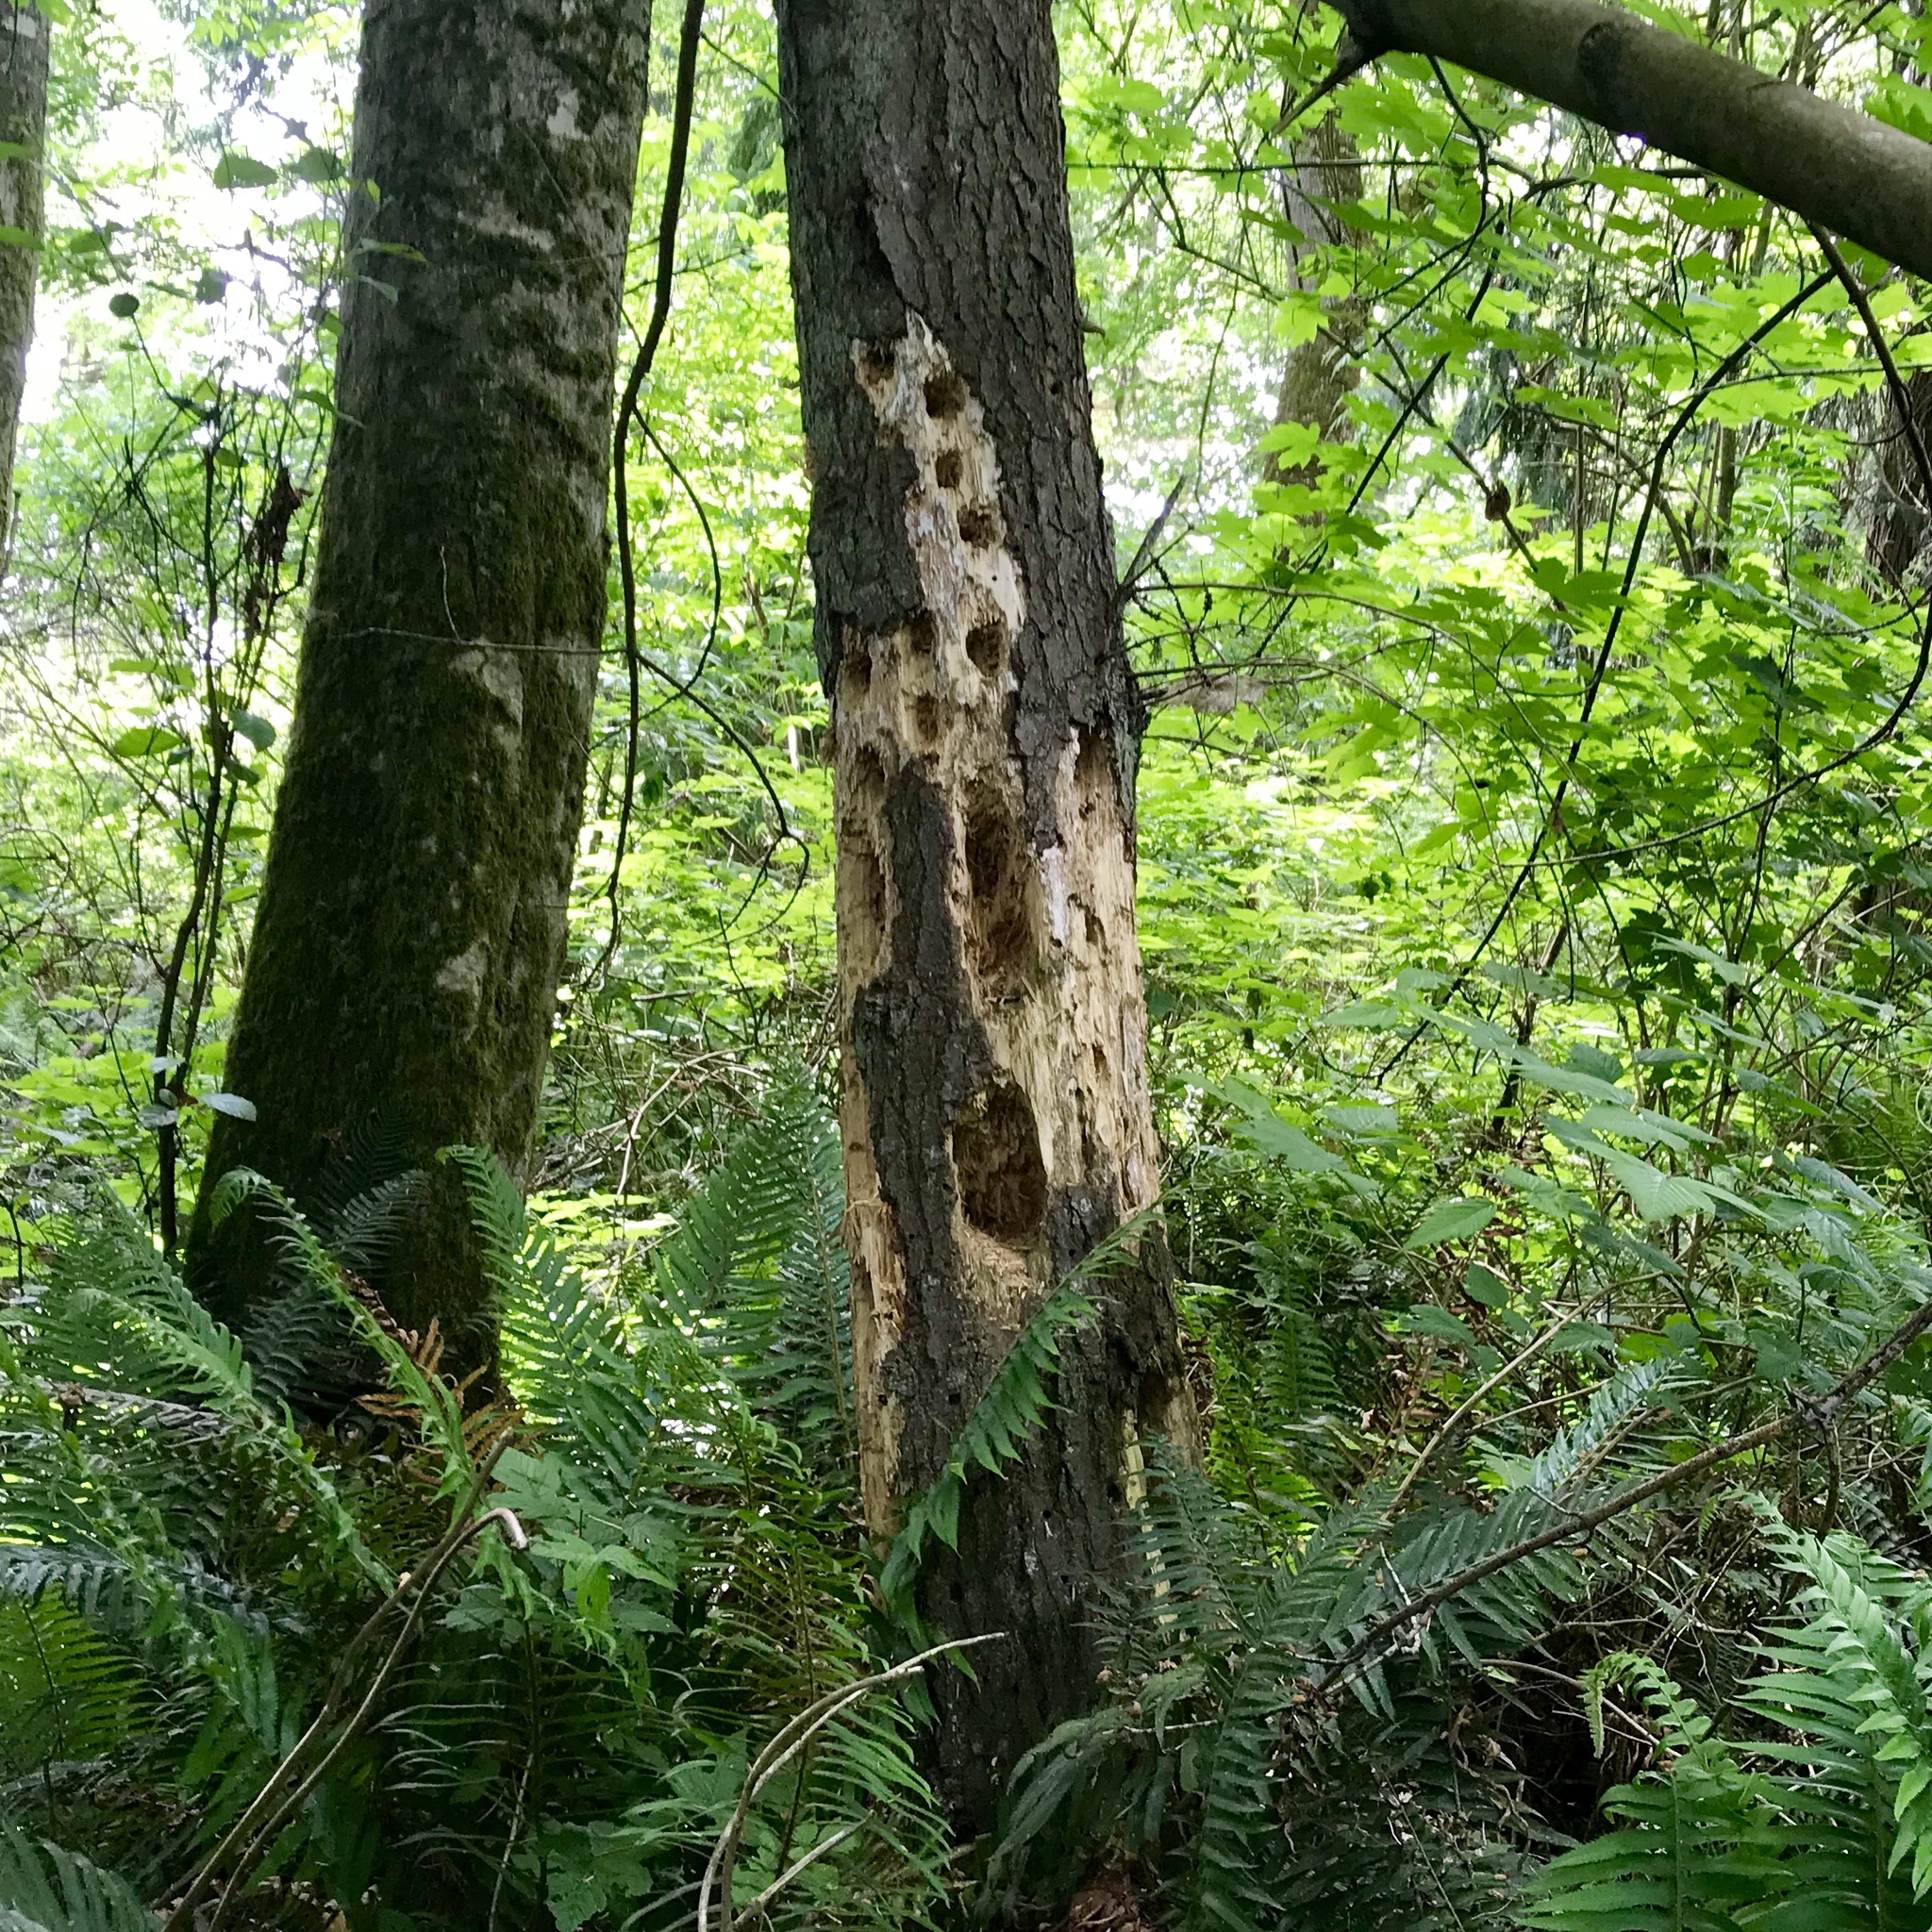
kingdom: Animalia
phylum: Chordata
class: Aves
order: Piciformes
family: Picidae
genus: Dryocopus
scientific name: Dryocopus pileatus
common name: Pileated woodpecker
